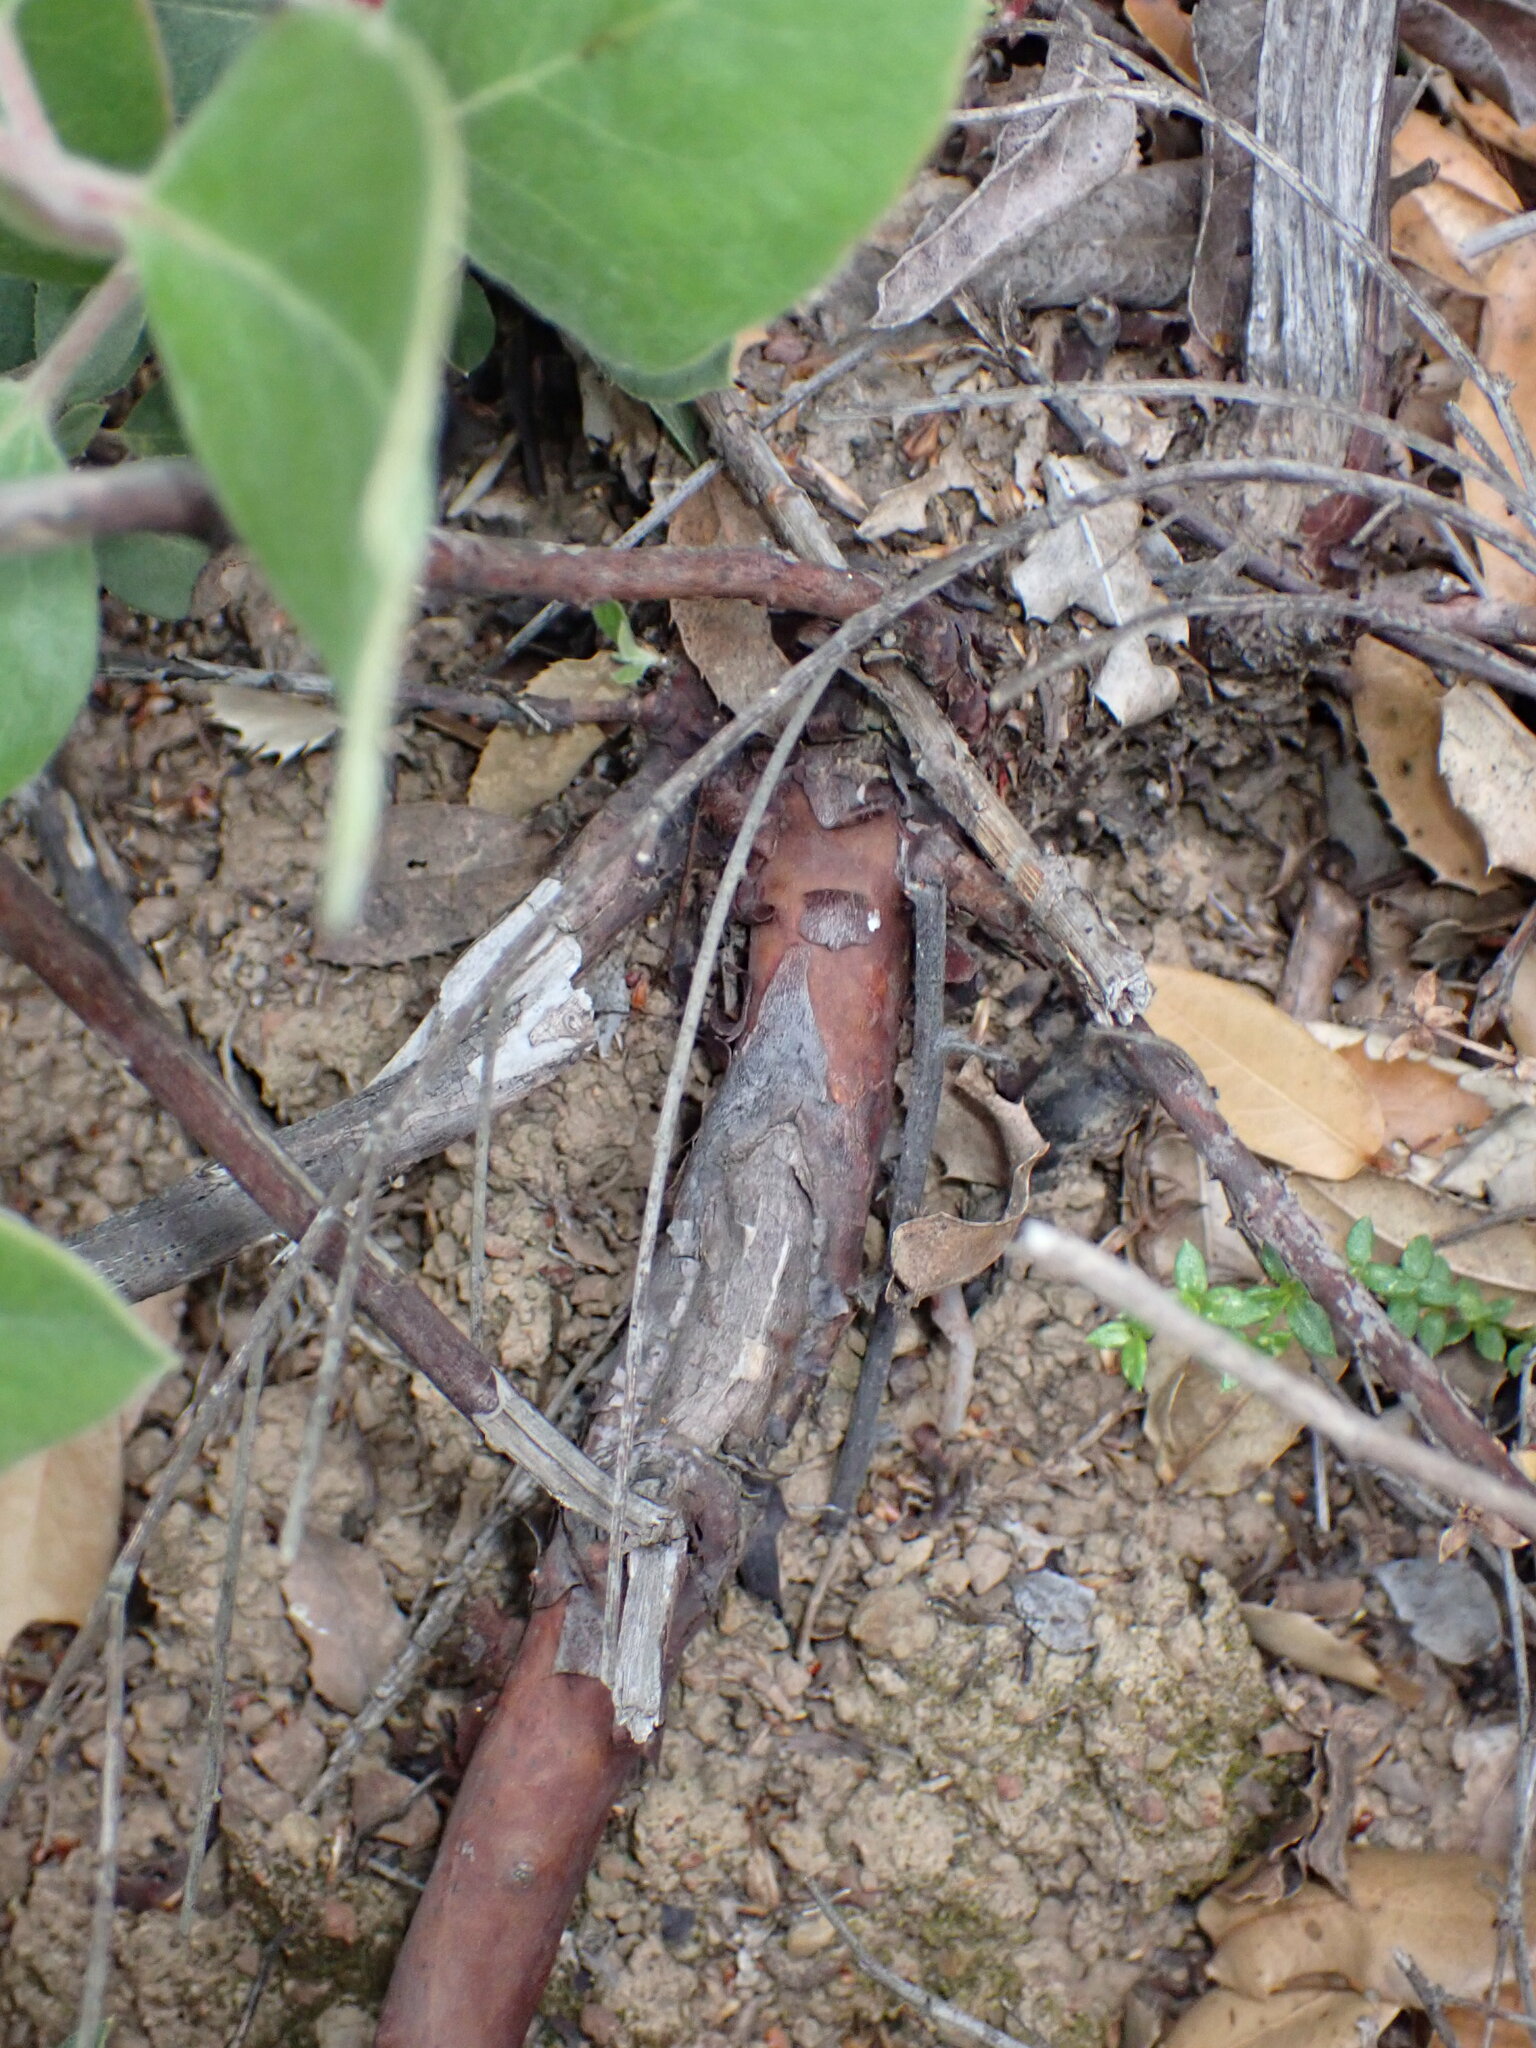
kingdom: Plantae
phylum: Tracheophyta
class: Magnoliopsida
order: Ericales
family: Ericaceae
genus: Arctostaphylos
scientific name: Arctostaphylos glandulosa
